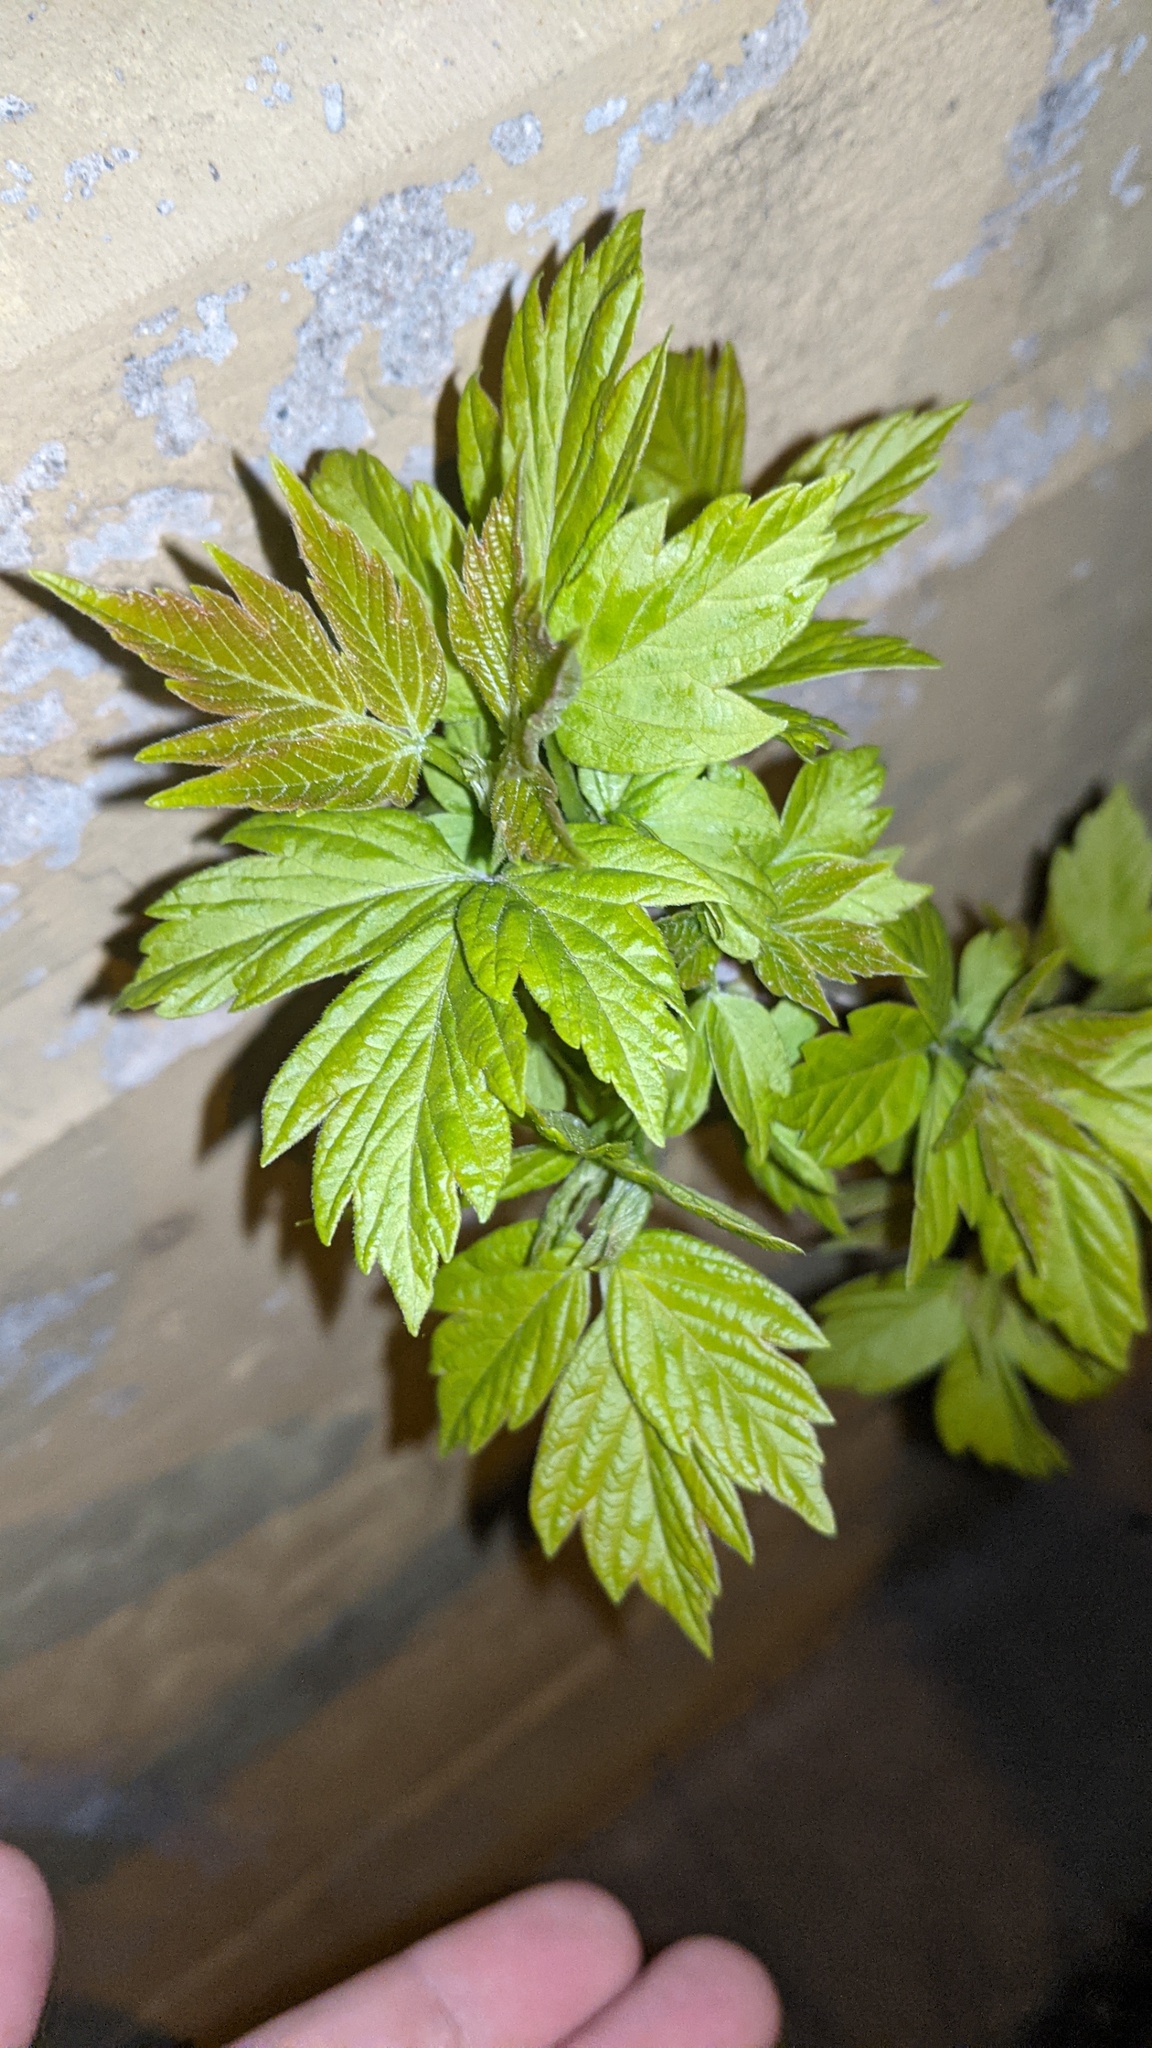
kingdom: Plantae
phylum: Tracheophyta
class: Magnoliopsida
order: Sapindales
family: Sapindaceae
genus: Acer
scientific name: Acer negundo
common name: Ashleaf maple
